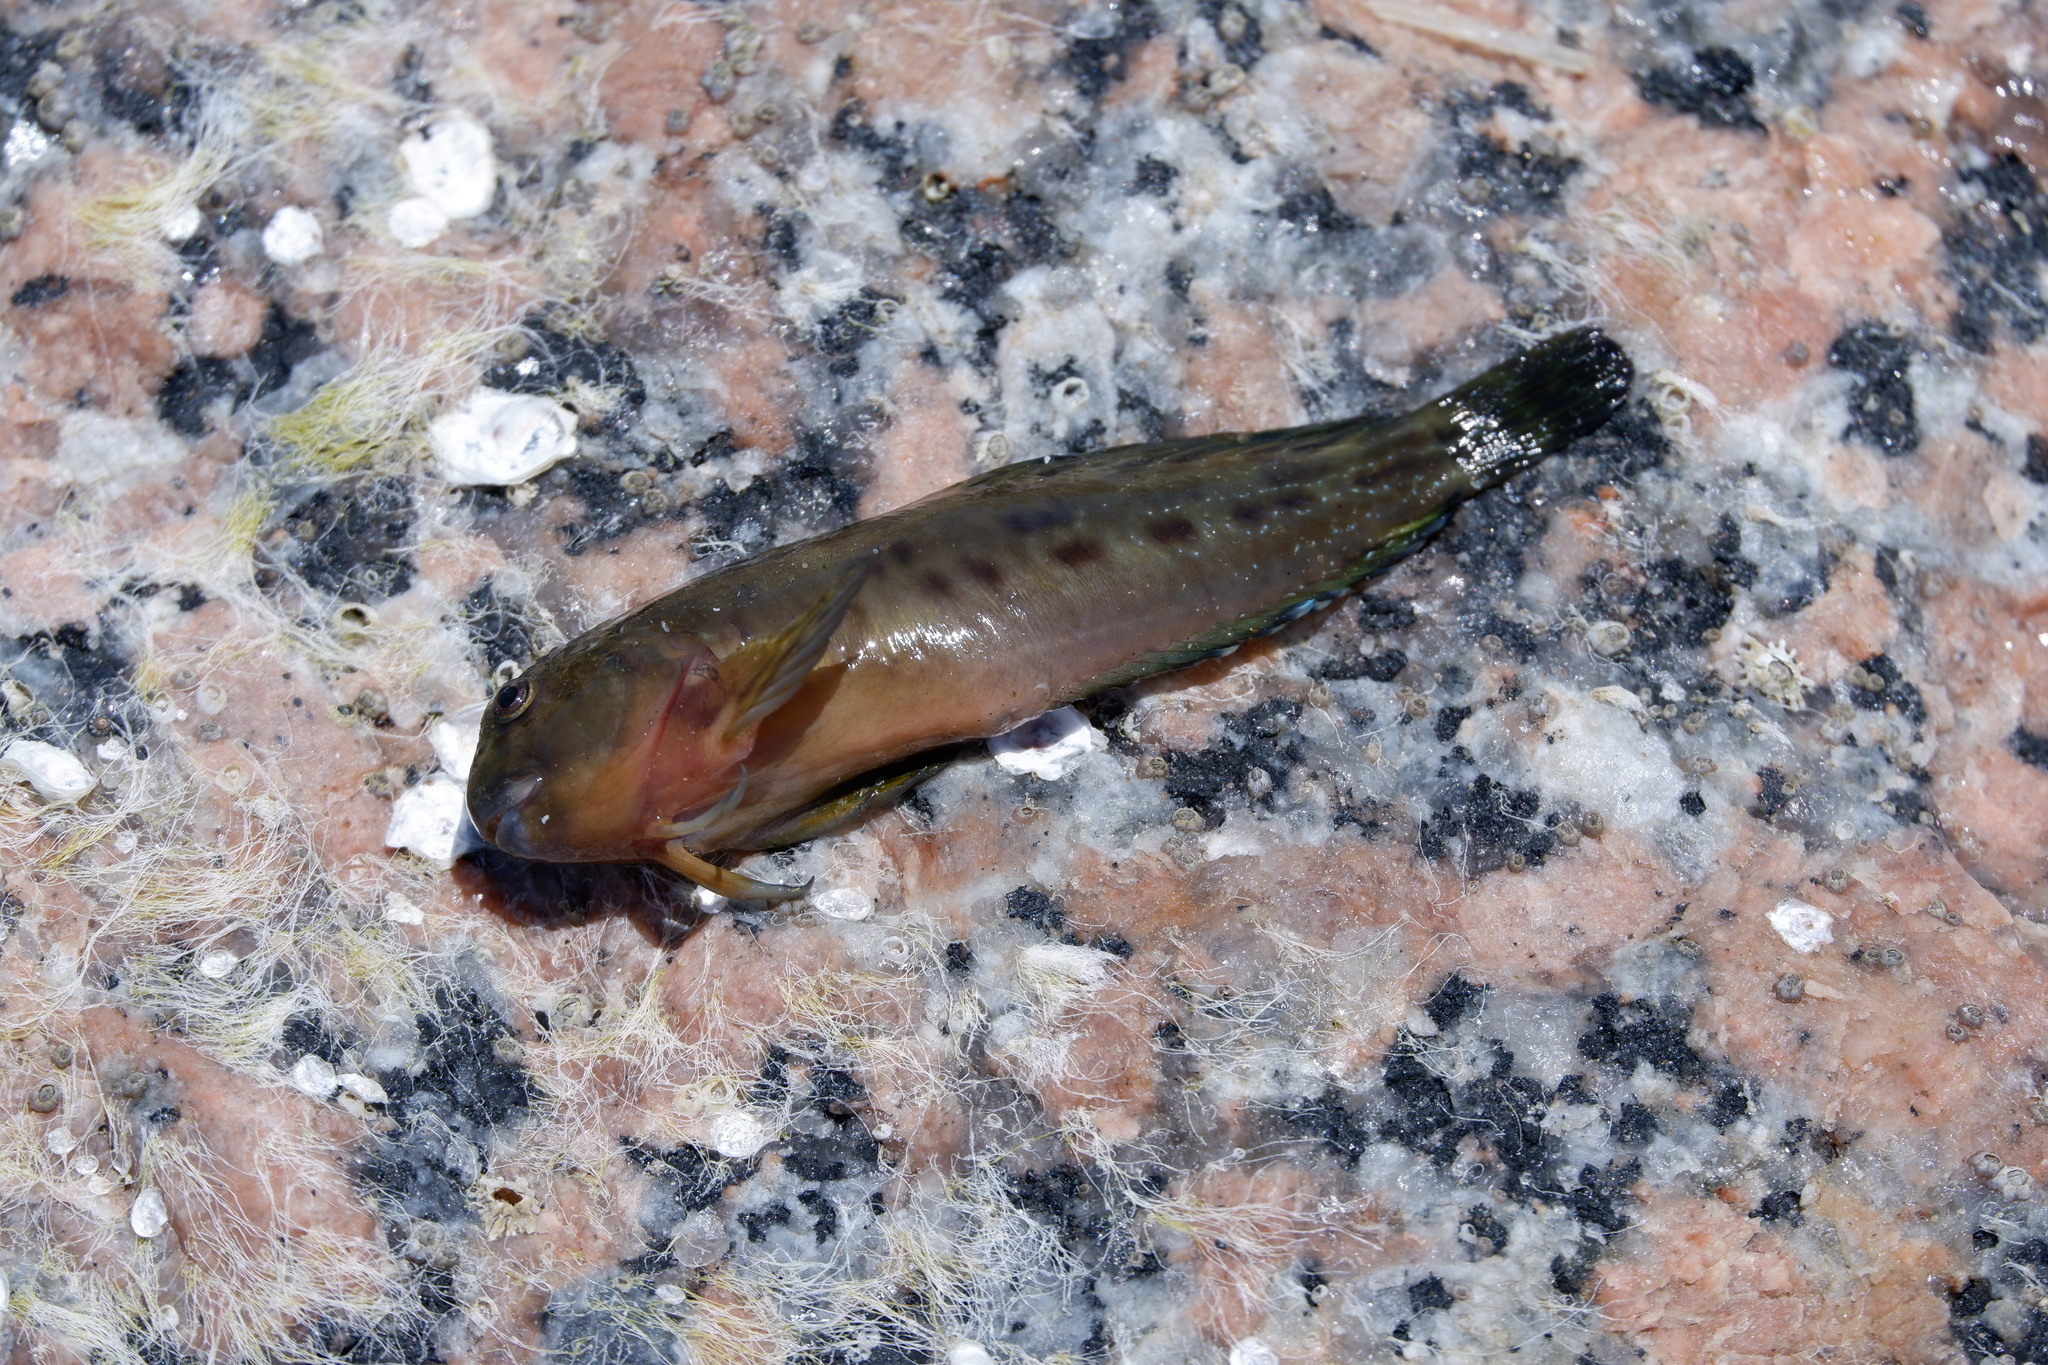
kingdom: Animalia
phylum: Chordata
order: Perciformes
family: Blenniidae
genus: Scartella
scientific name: Scartella cristata
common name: Molly miller
